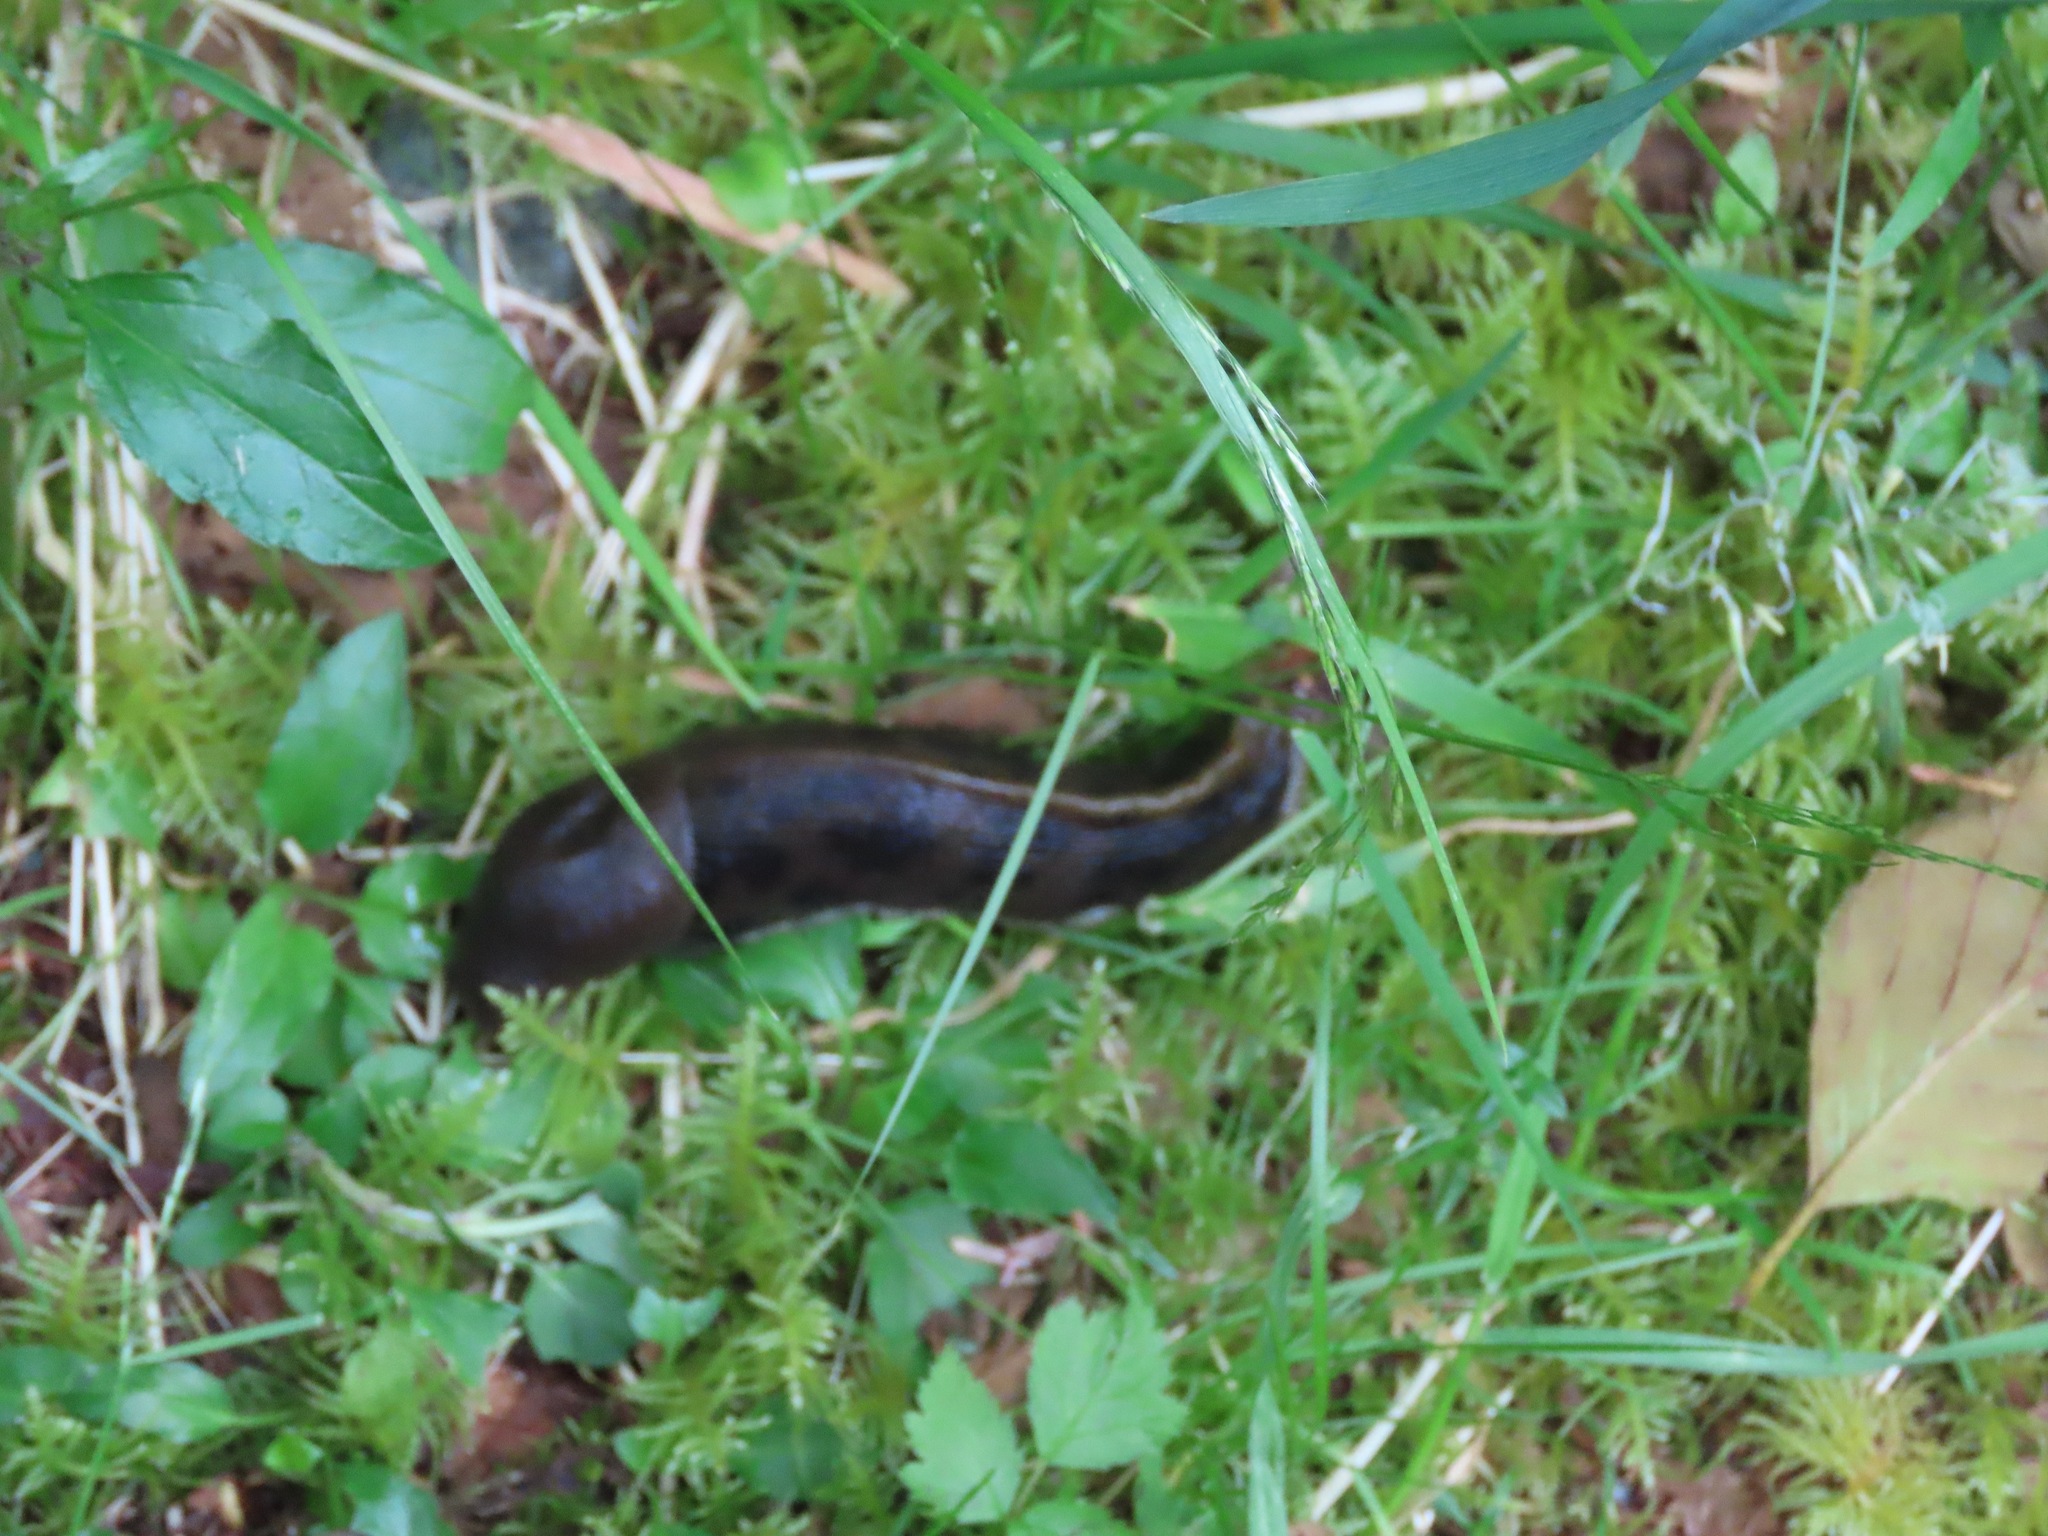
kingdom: Animalia
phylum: Mollusca
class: Gastropoda
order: Stylommatophora
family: Ariolimacidae
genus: Ariolimax
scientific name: Ariolimax columbianus
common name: Pacific banana slug
